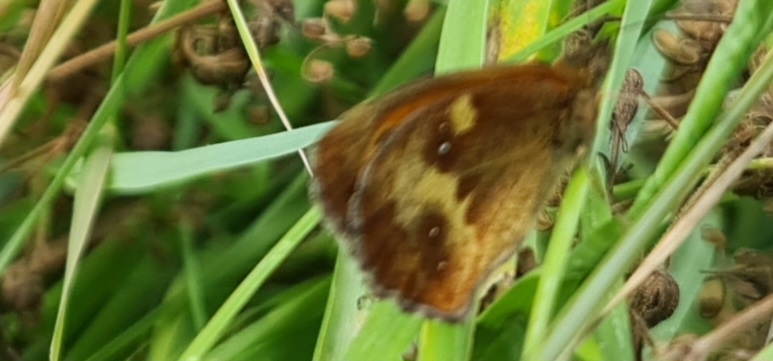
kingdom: Animalia
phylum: Arthropoda
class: Insecta
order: Lepidoptera
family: Nymphalidae
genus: Pyronia
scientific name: Pyronia tithonus
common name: Gatekeeper
